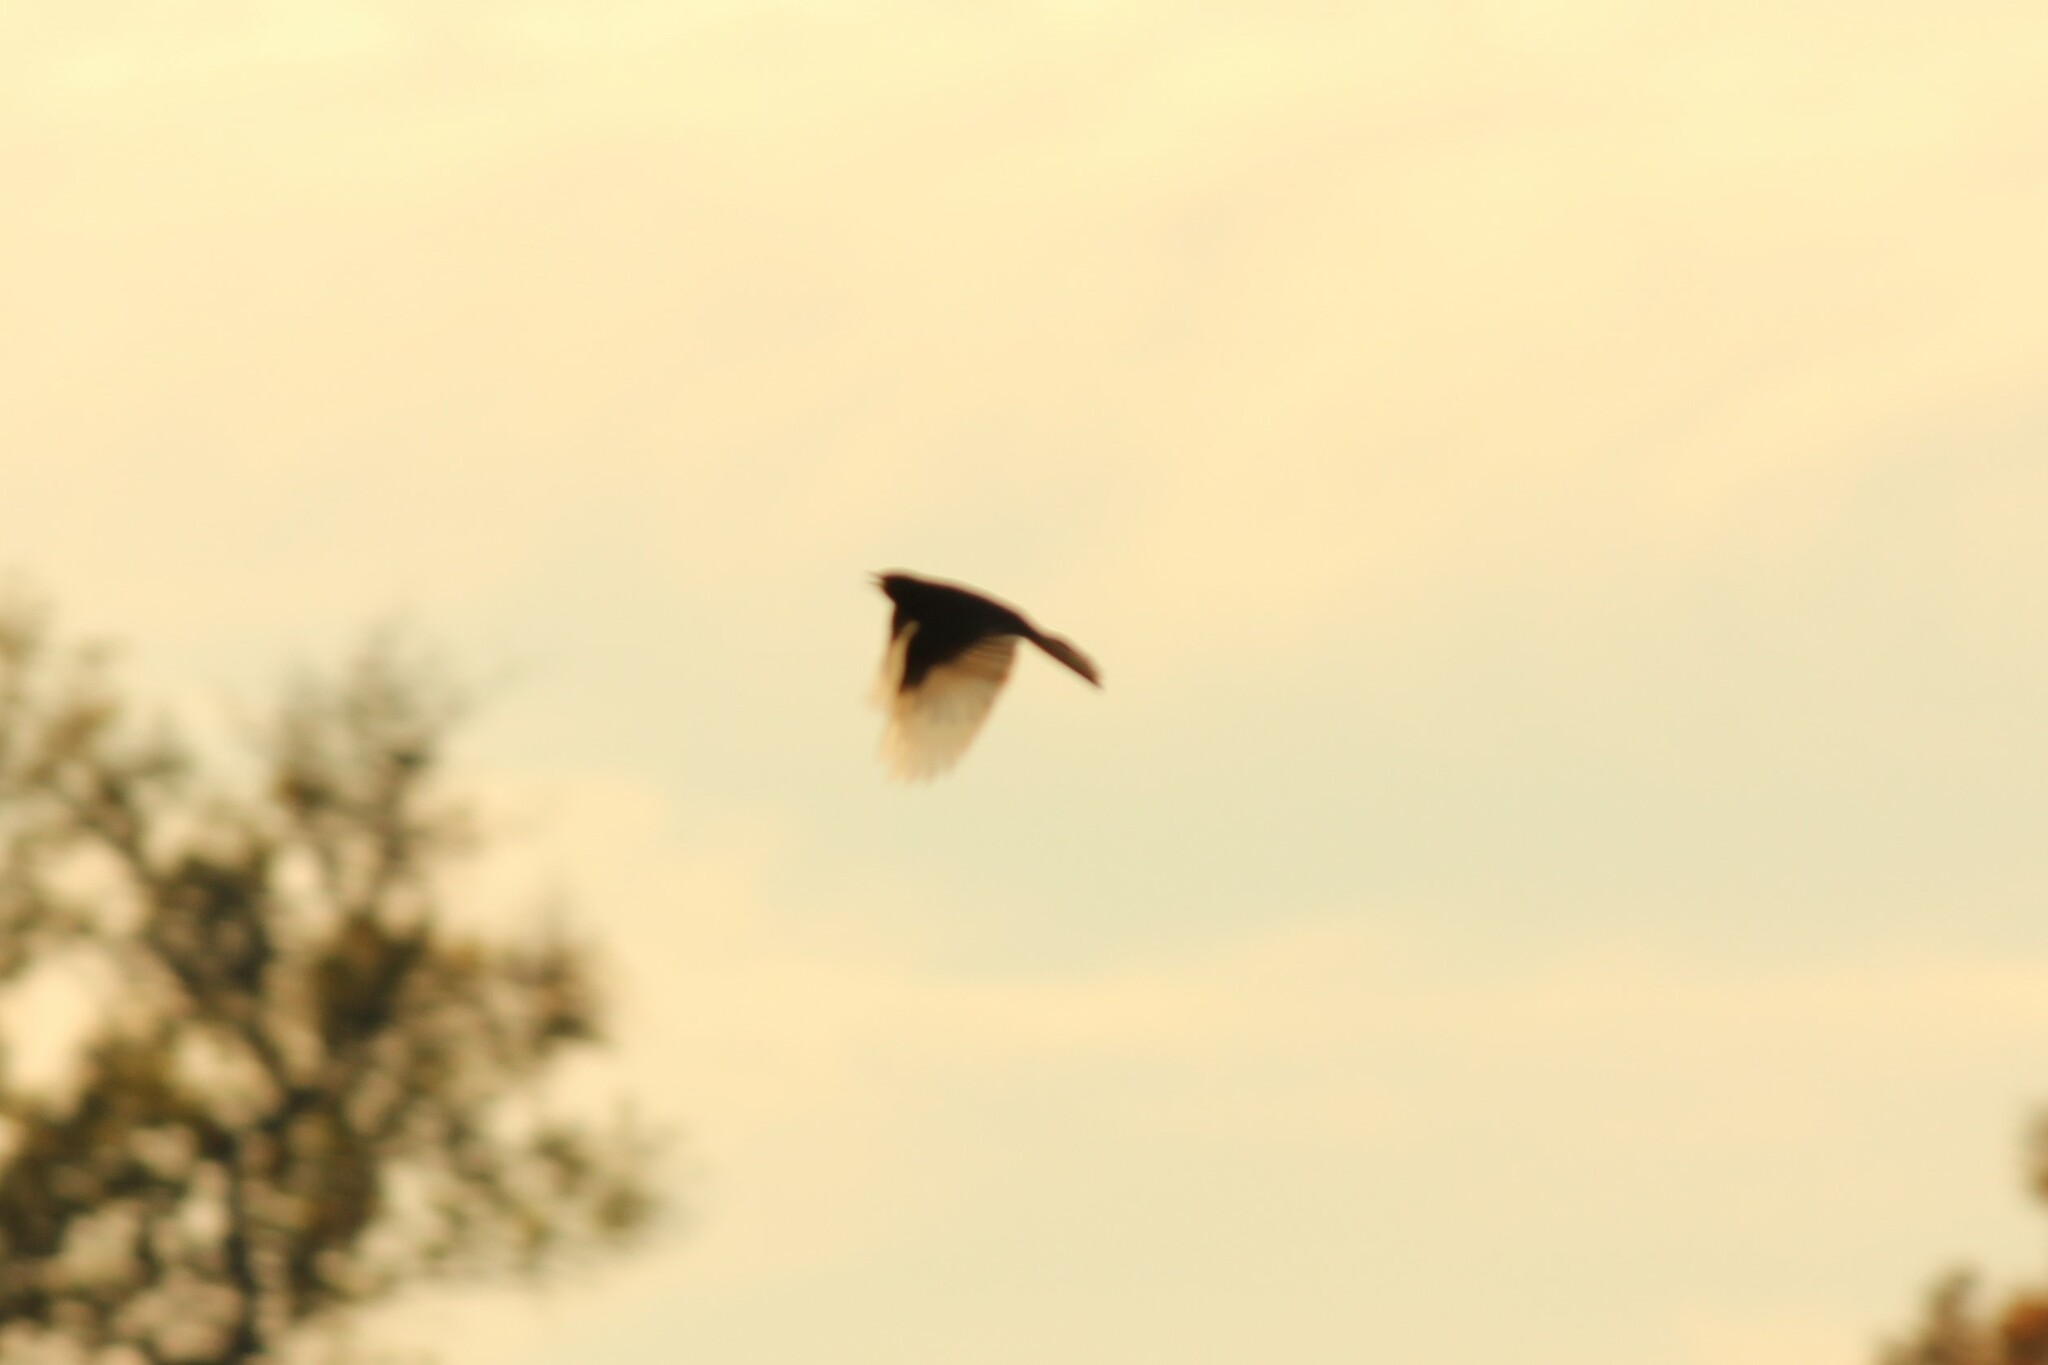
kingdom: Animalia
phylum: Chordata
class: Aves
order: Passeriformes
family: Tyrannidae
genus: Sayornis
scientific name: Sayornis nigricans
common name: Black phoebe
